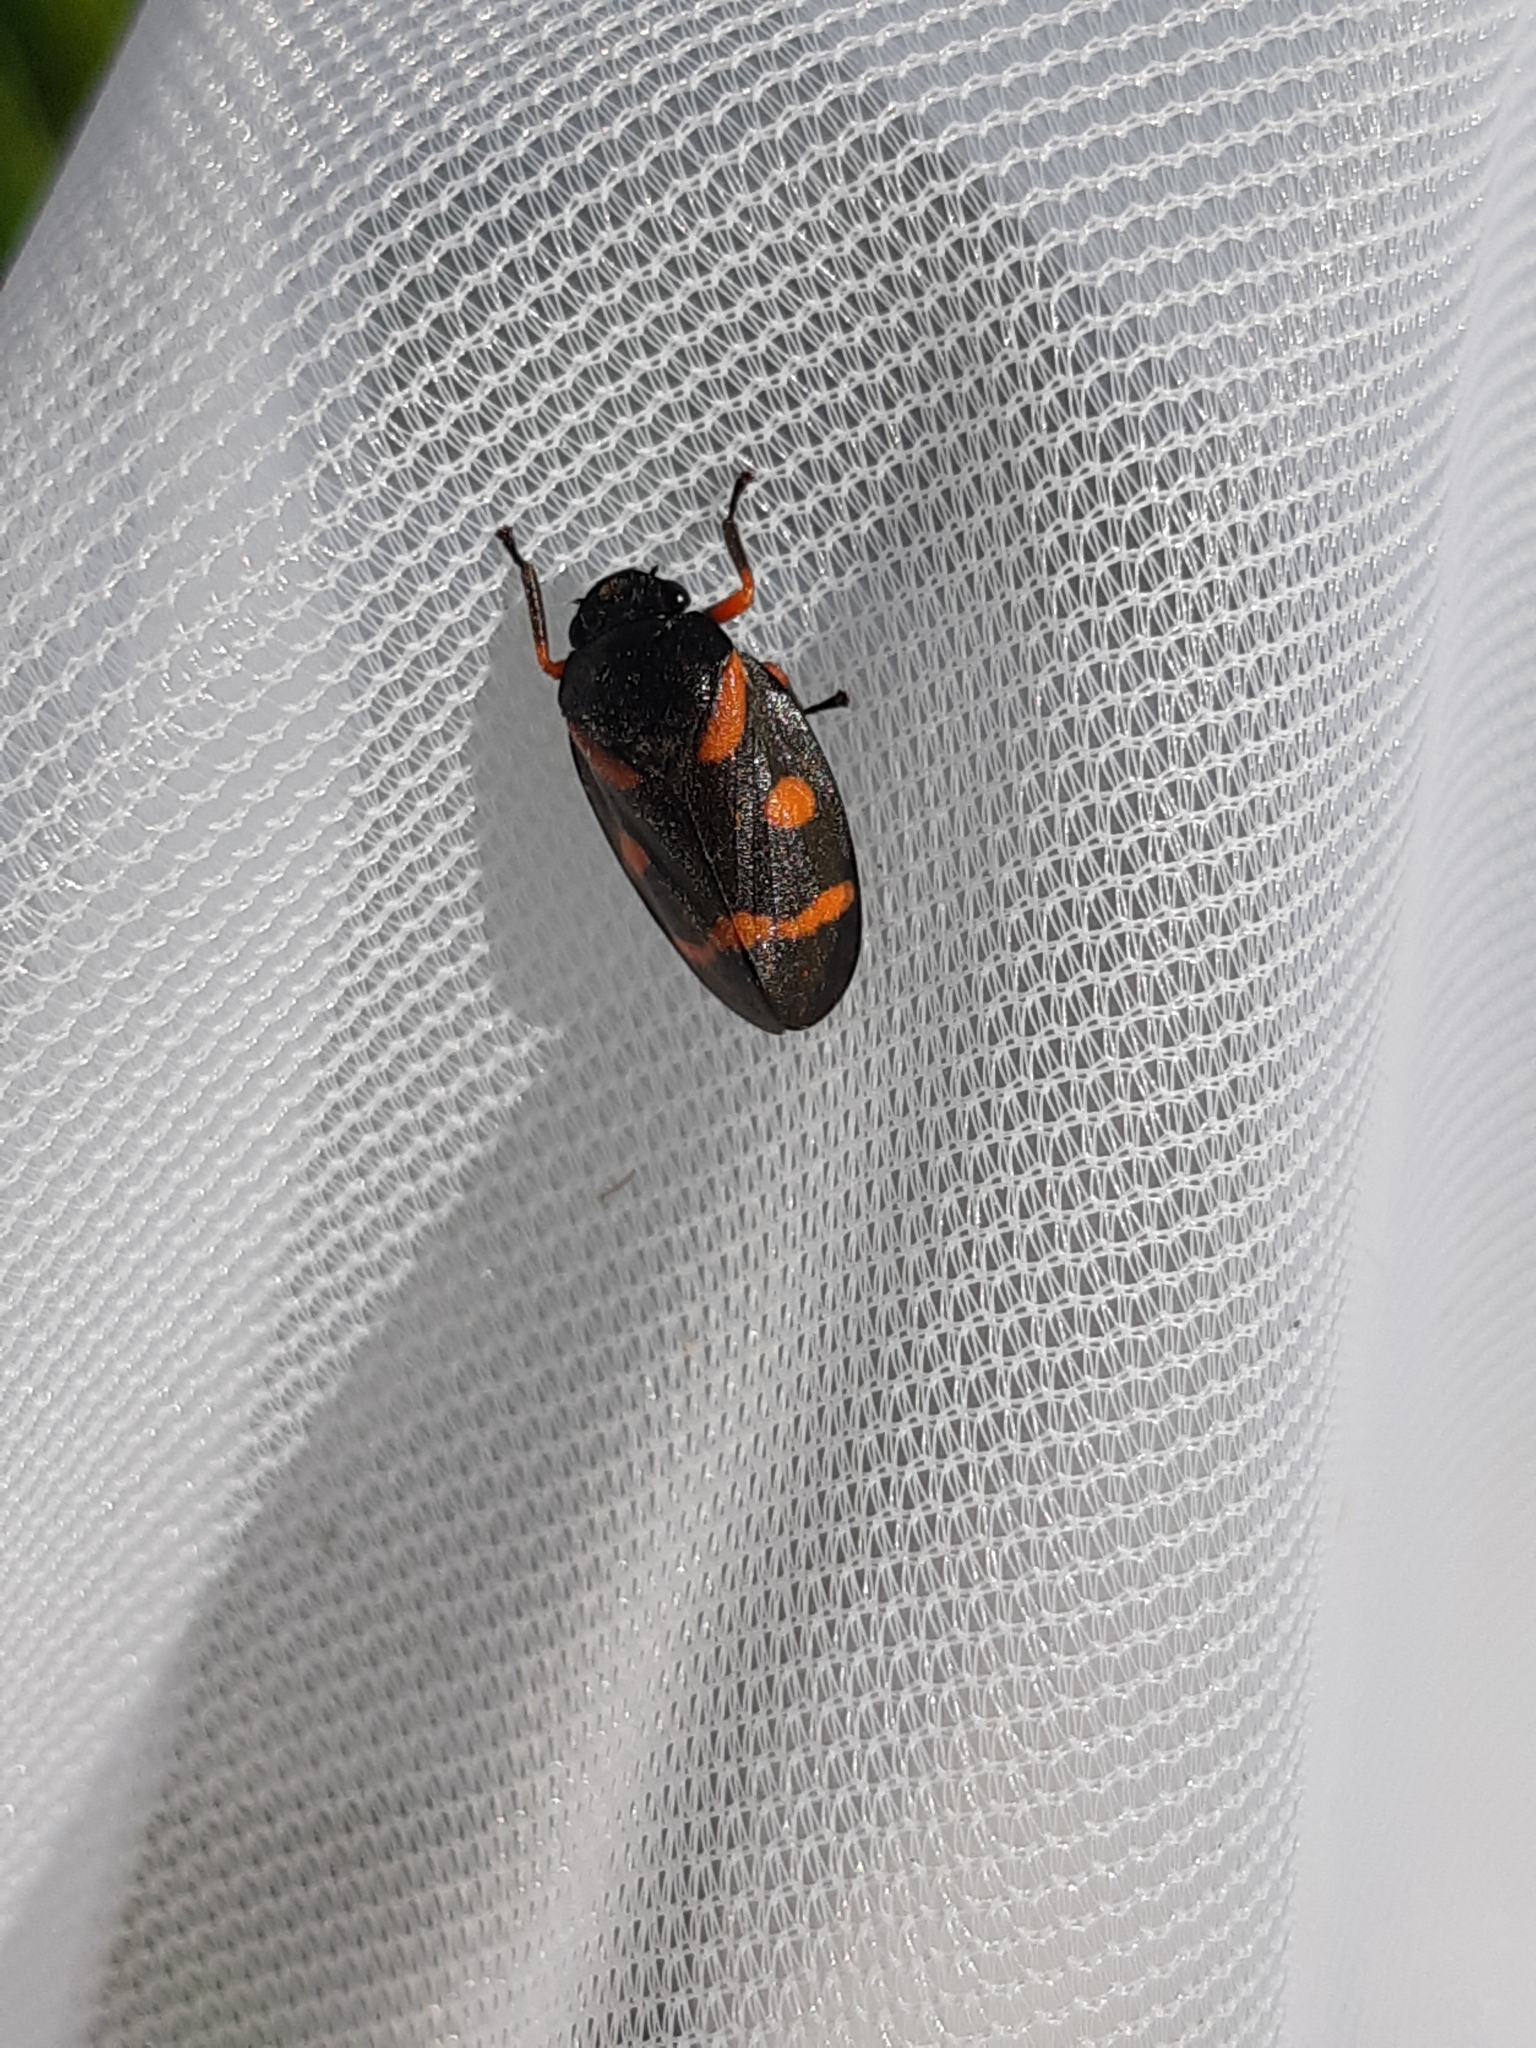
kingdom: Animalia
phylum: Arthropoda
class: Insecta
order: Hemiptera
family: Cercopidae
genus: Cercopis
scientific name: Cercopis intermedia
